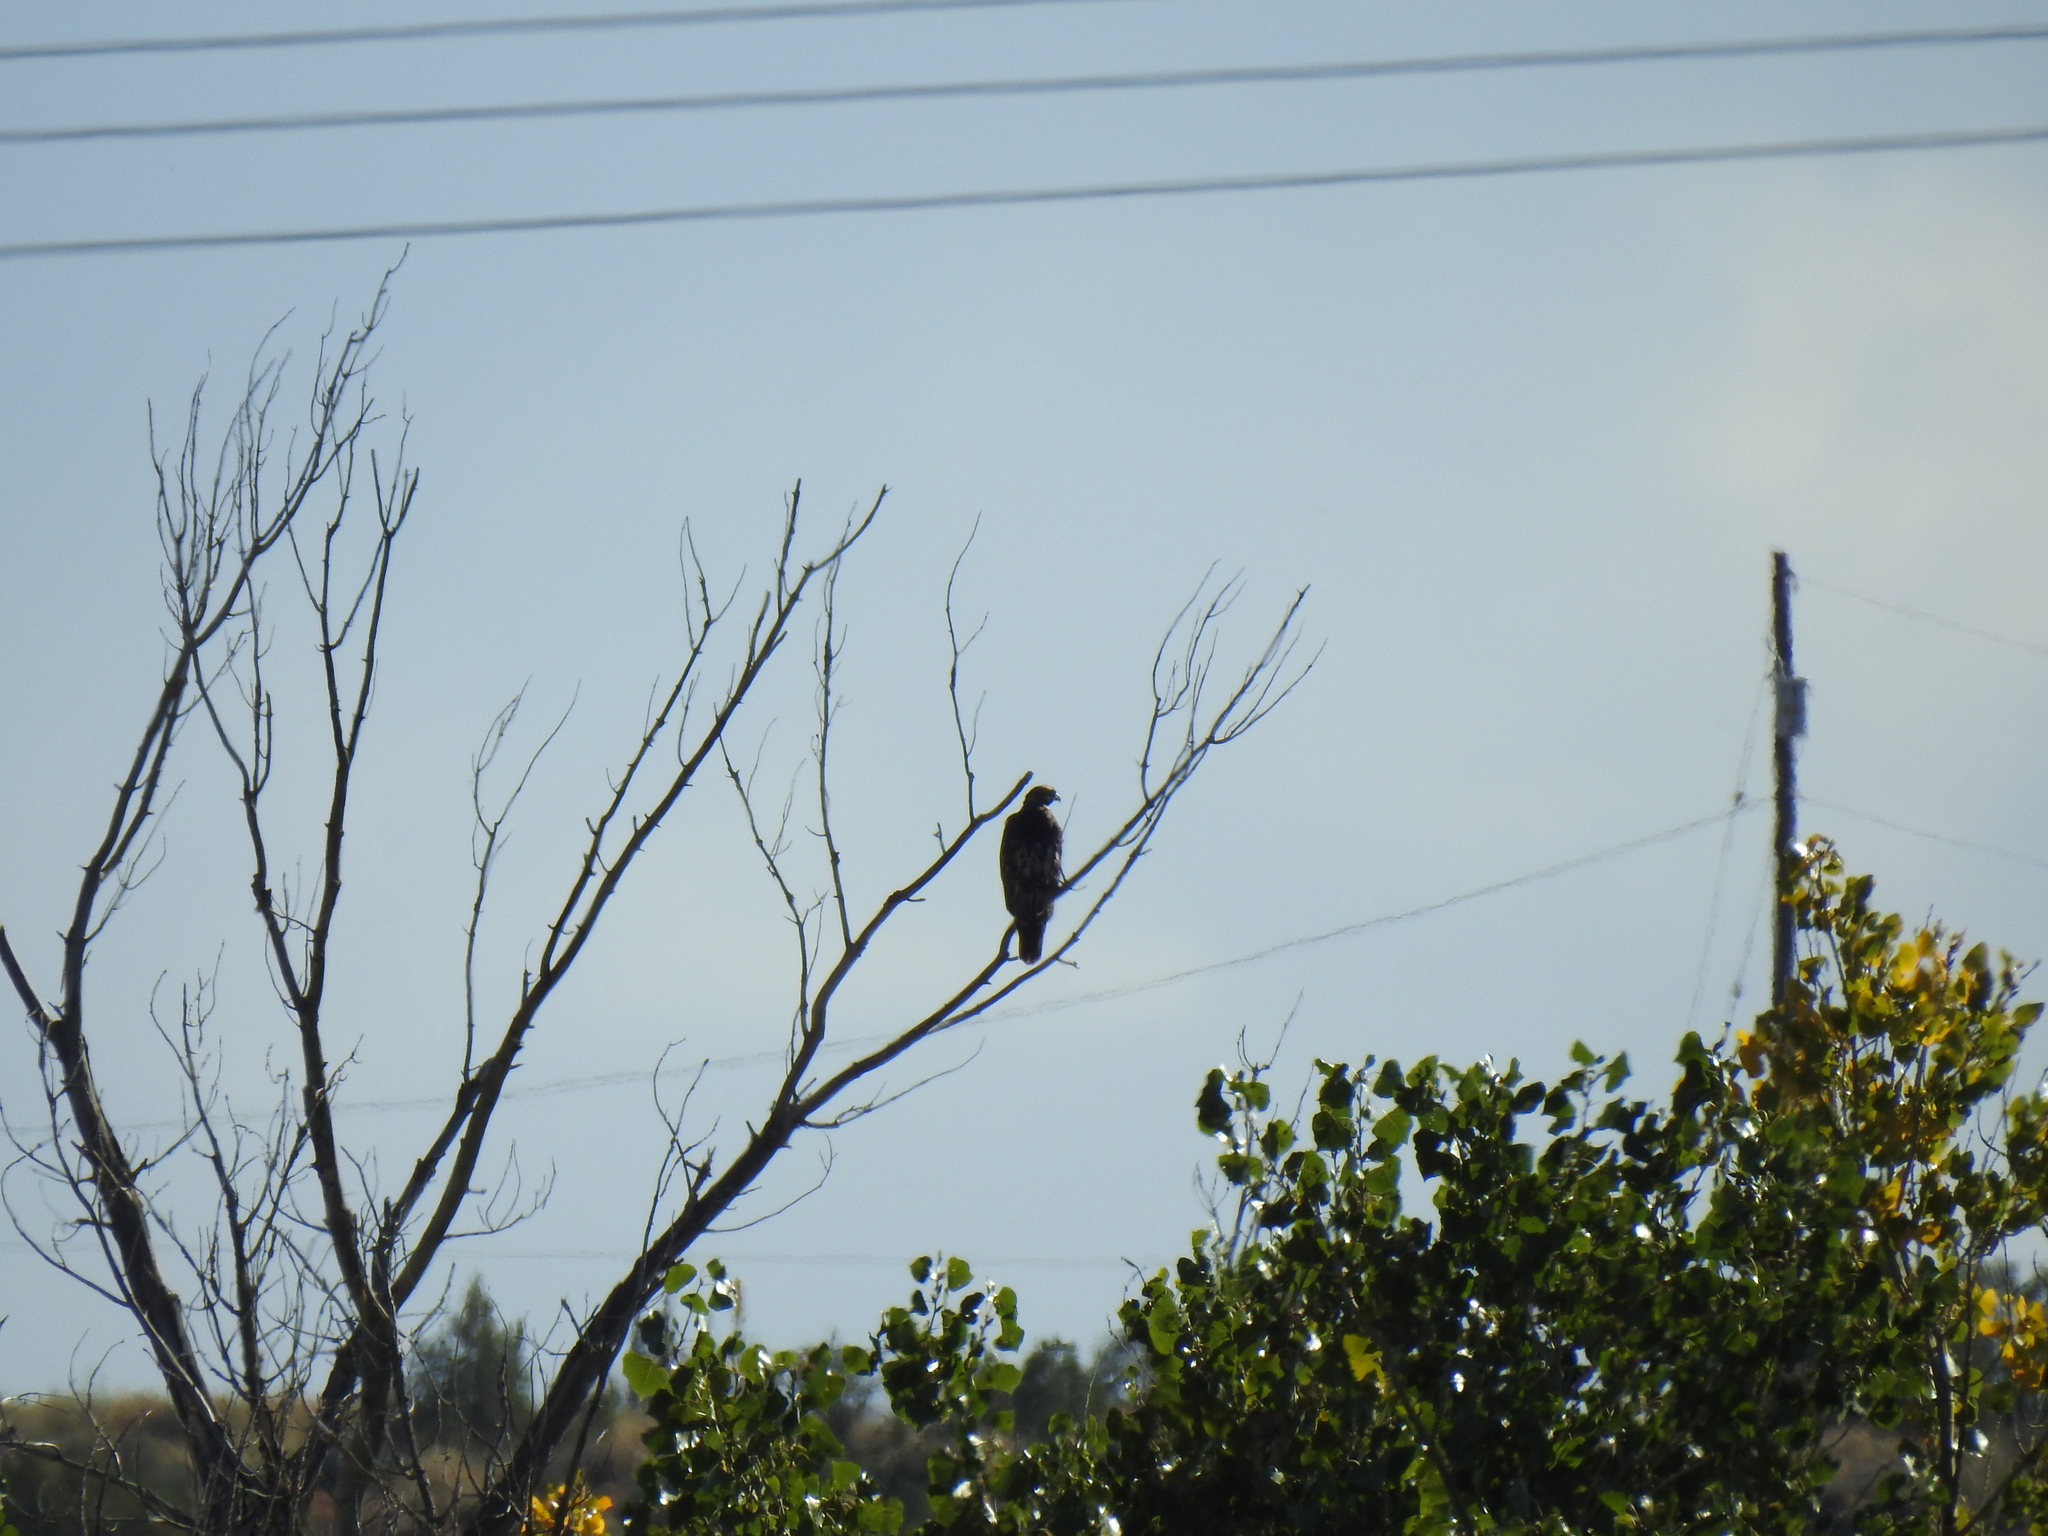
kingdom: Animalia
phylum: Chordata
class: Aves
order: Accipitriformes
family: Accipitridae
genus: Buteo
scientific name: Buteo jamaicensis
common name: Red-tailed hawk
